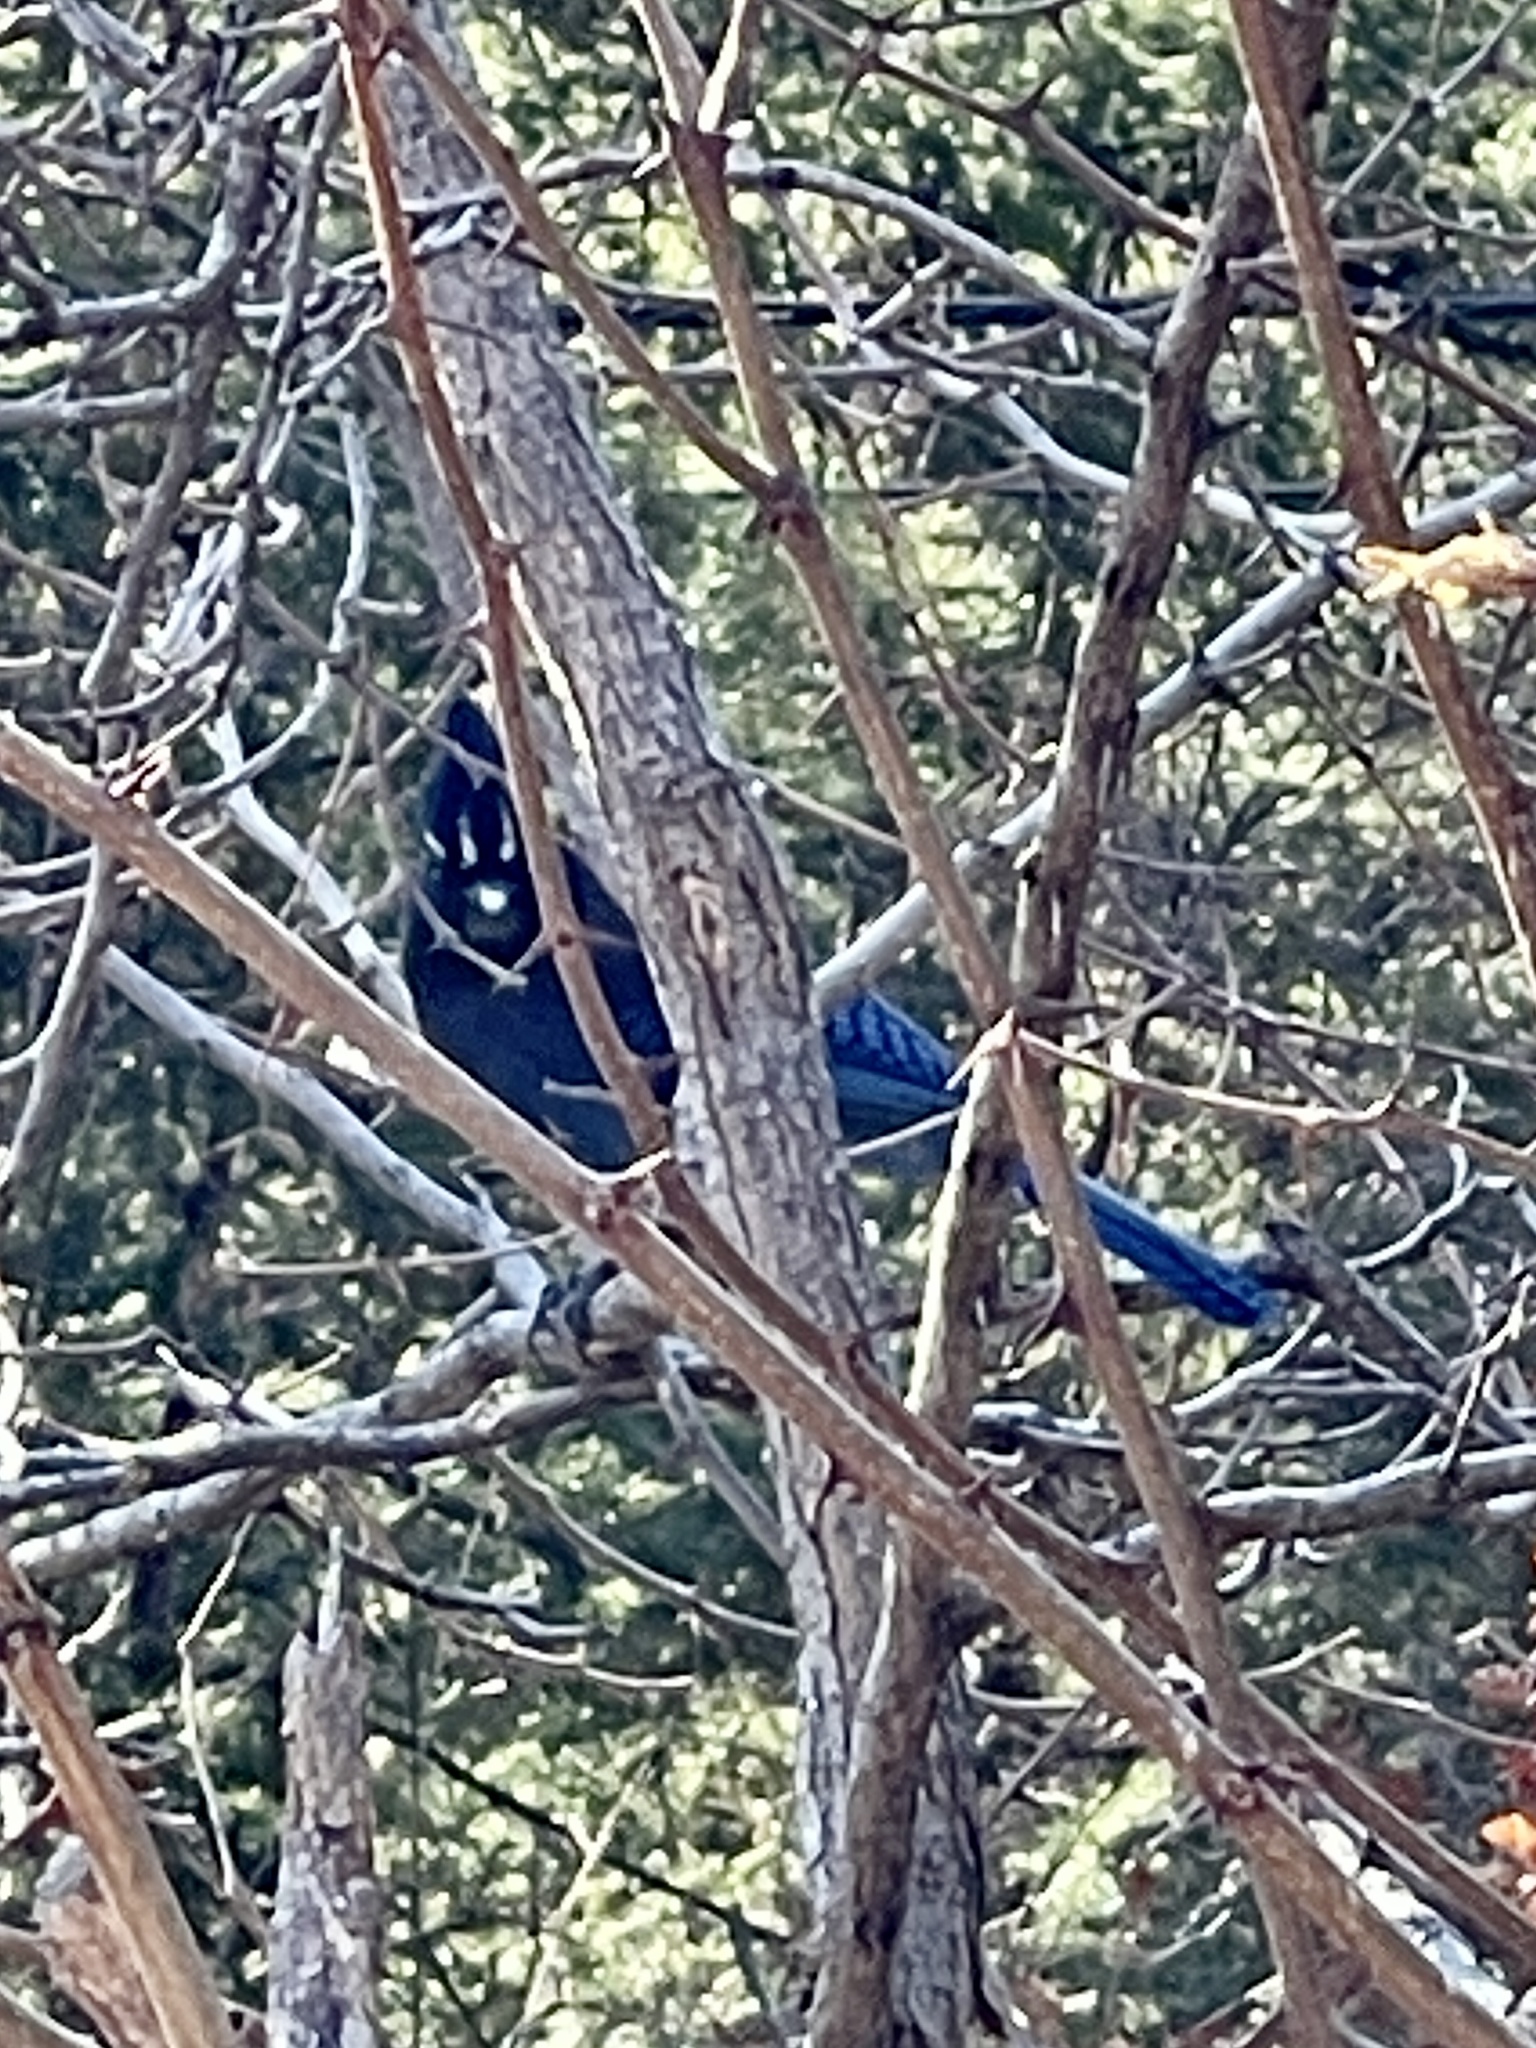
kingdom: Animalia
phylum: Chordata
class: Aves
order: Passeriformes
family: Corvidae
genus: Cyanocitta
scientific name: Cyanocitta stelleri
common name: Steller's jay
